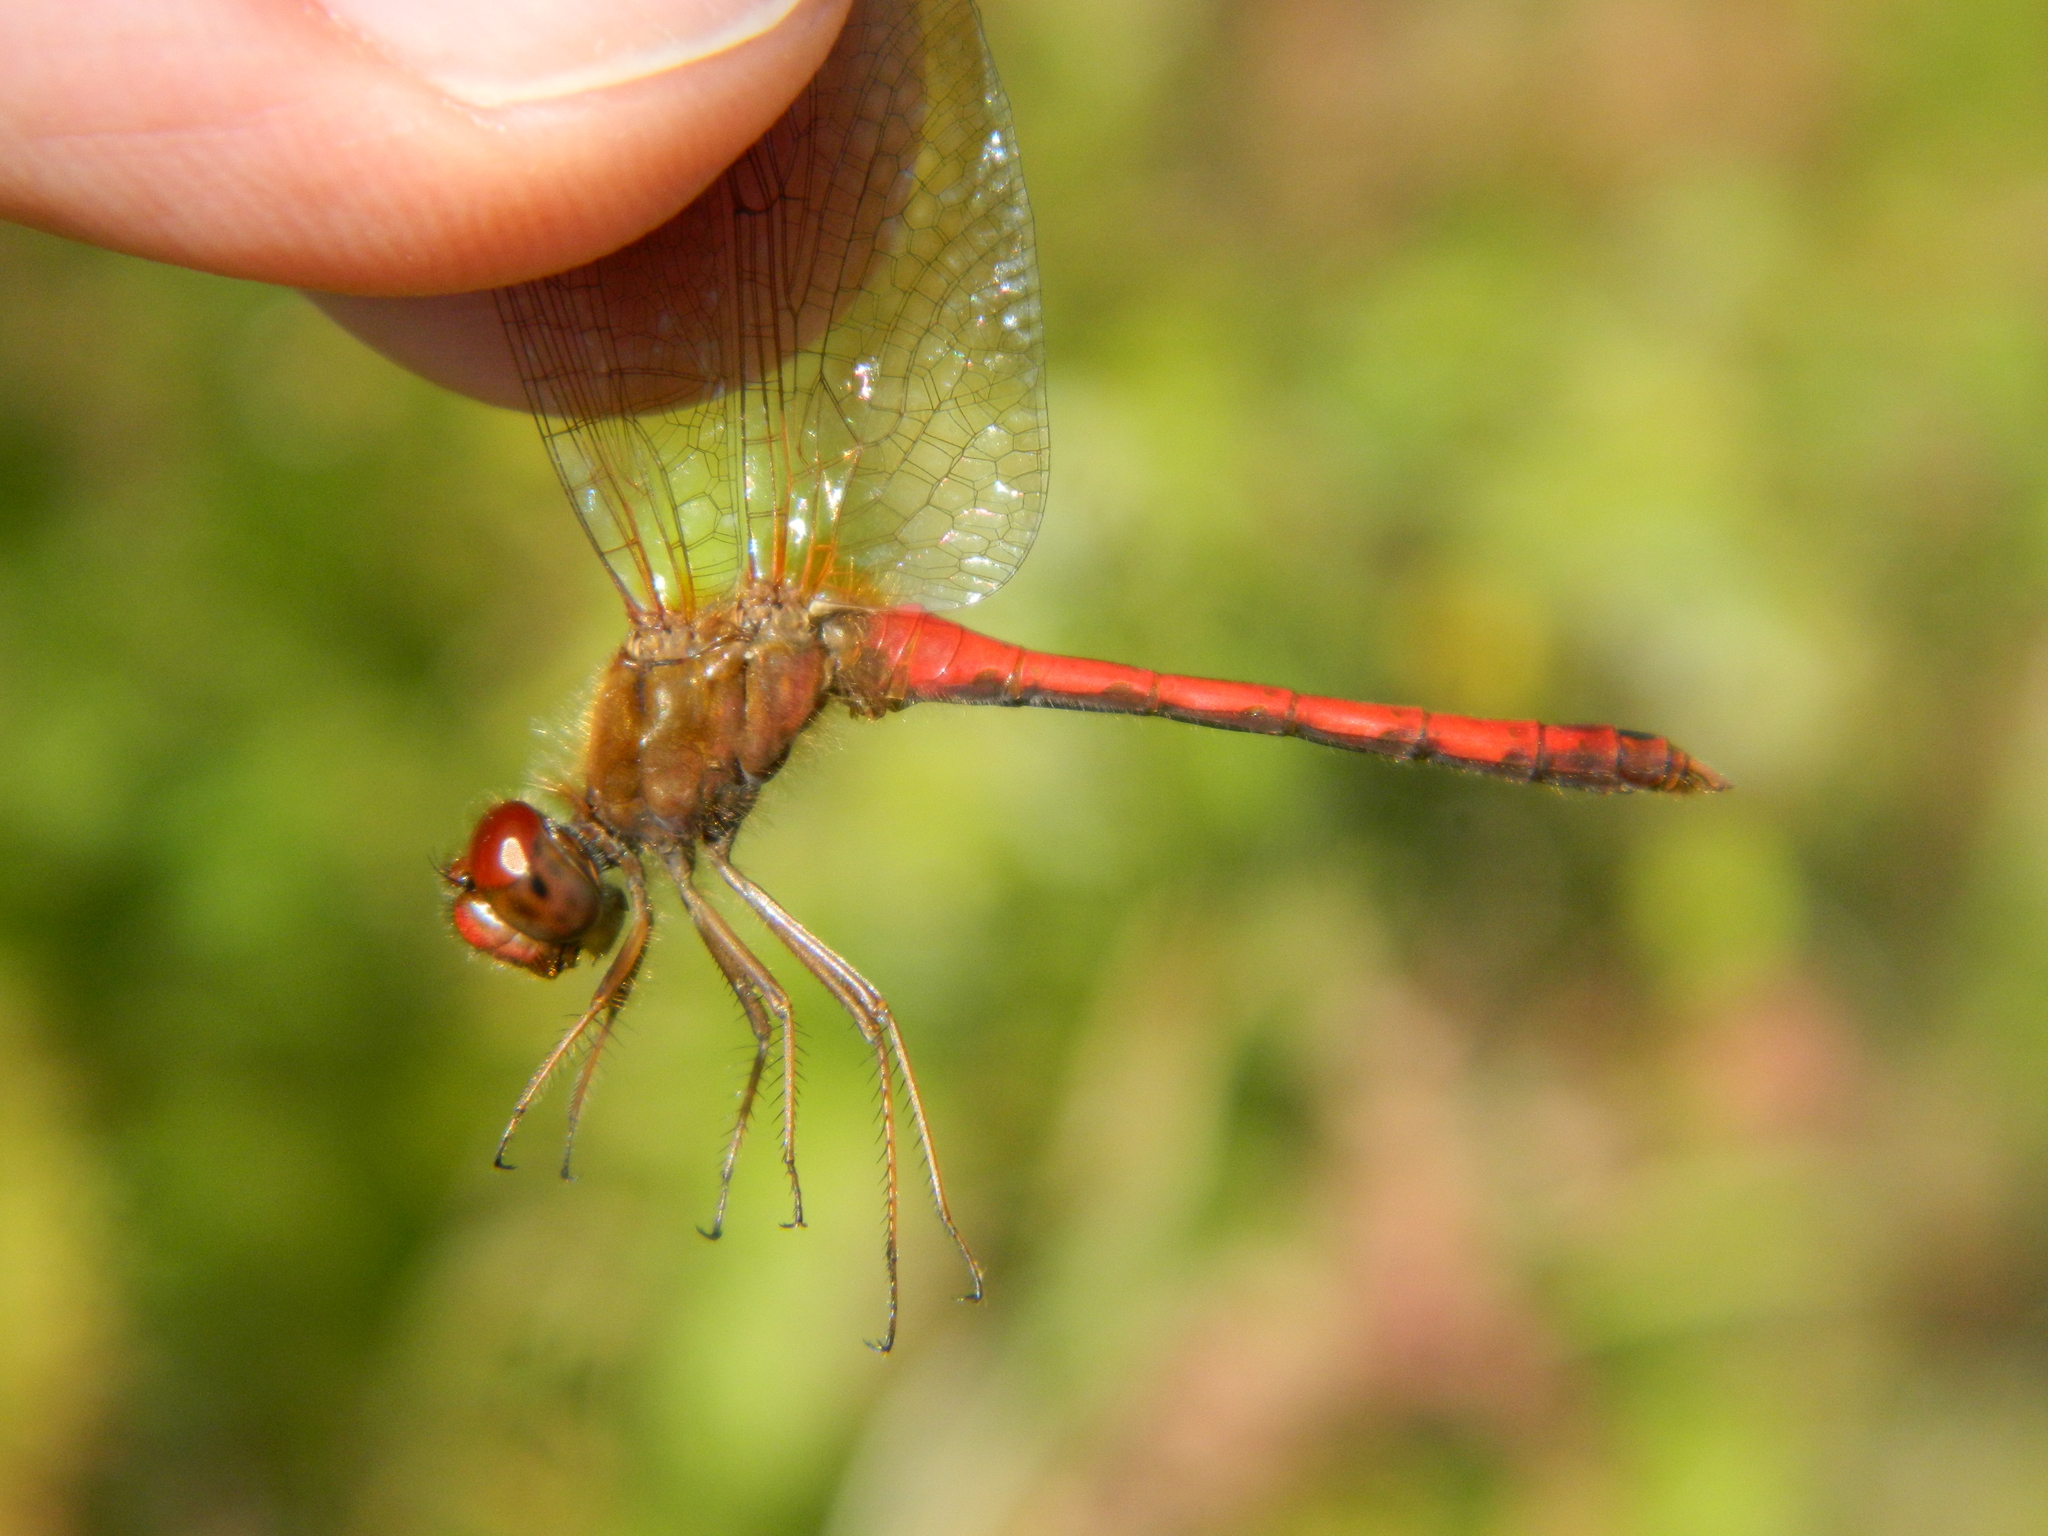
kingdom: Animalia
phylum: Arthropoda
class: Insecta
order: Odonata
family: Libellulidae
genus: Sympetrum
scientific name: Sympetrum vicinum
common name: Autumn meadowhawk
